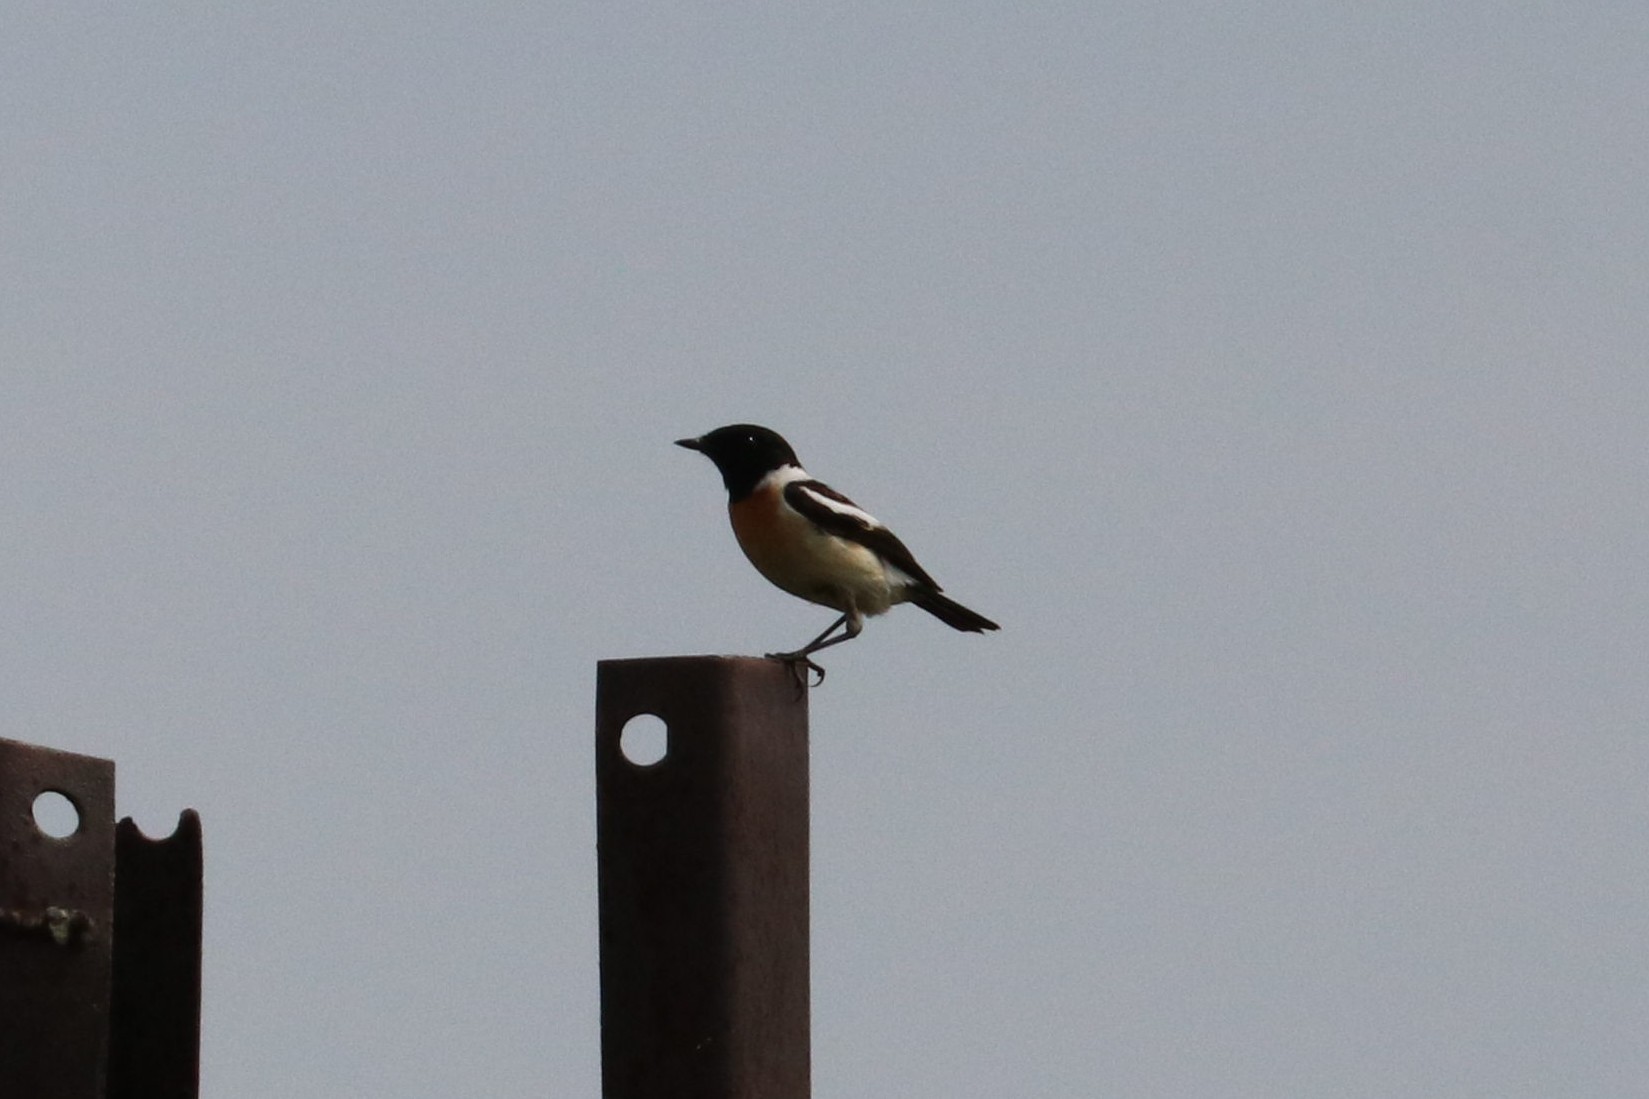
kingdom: Animalia
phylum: Chordata
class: Aves
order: Passeriformes
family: Muscicapidae
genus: Saxicola
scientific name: Saxicola maurus
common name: Siberian stonechat
